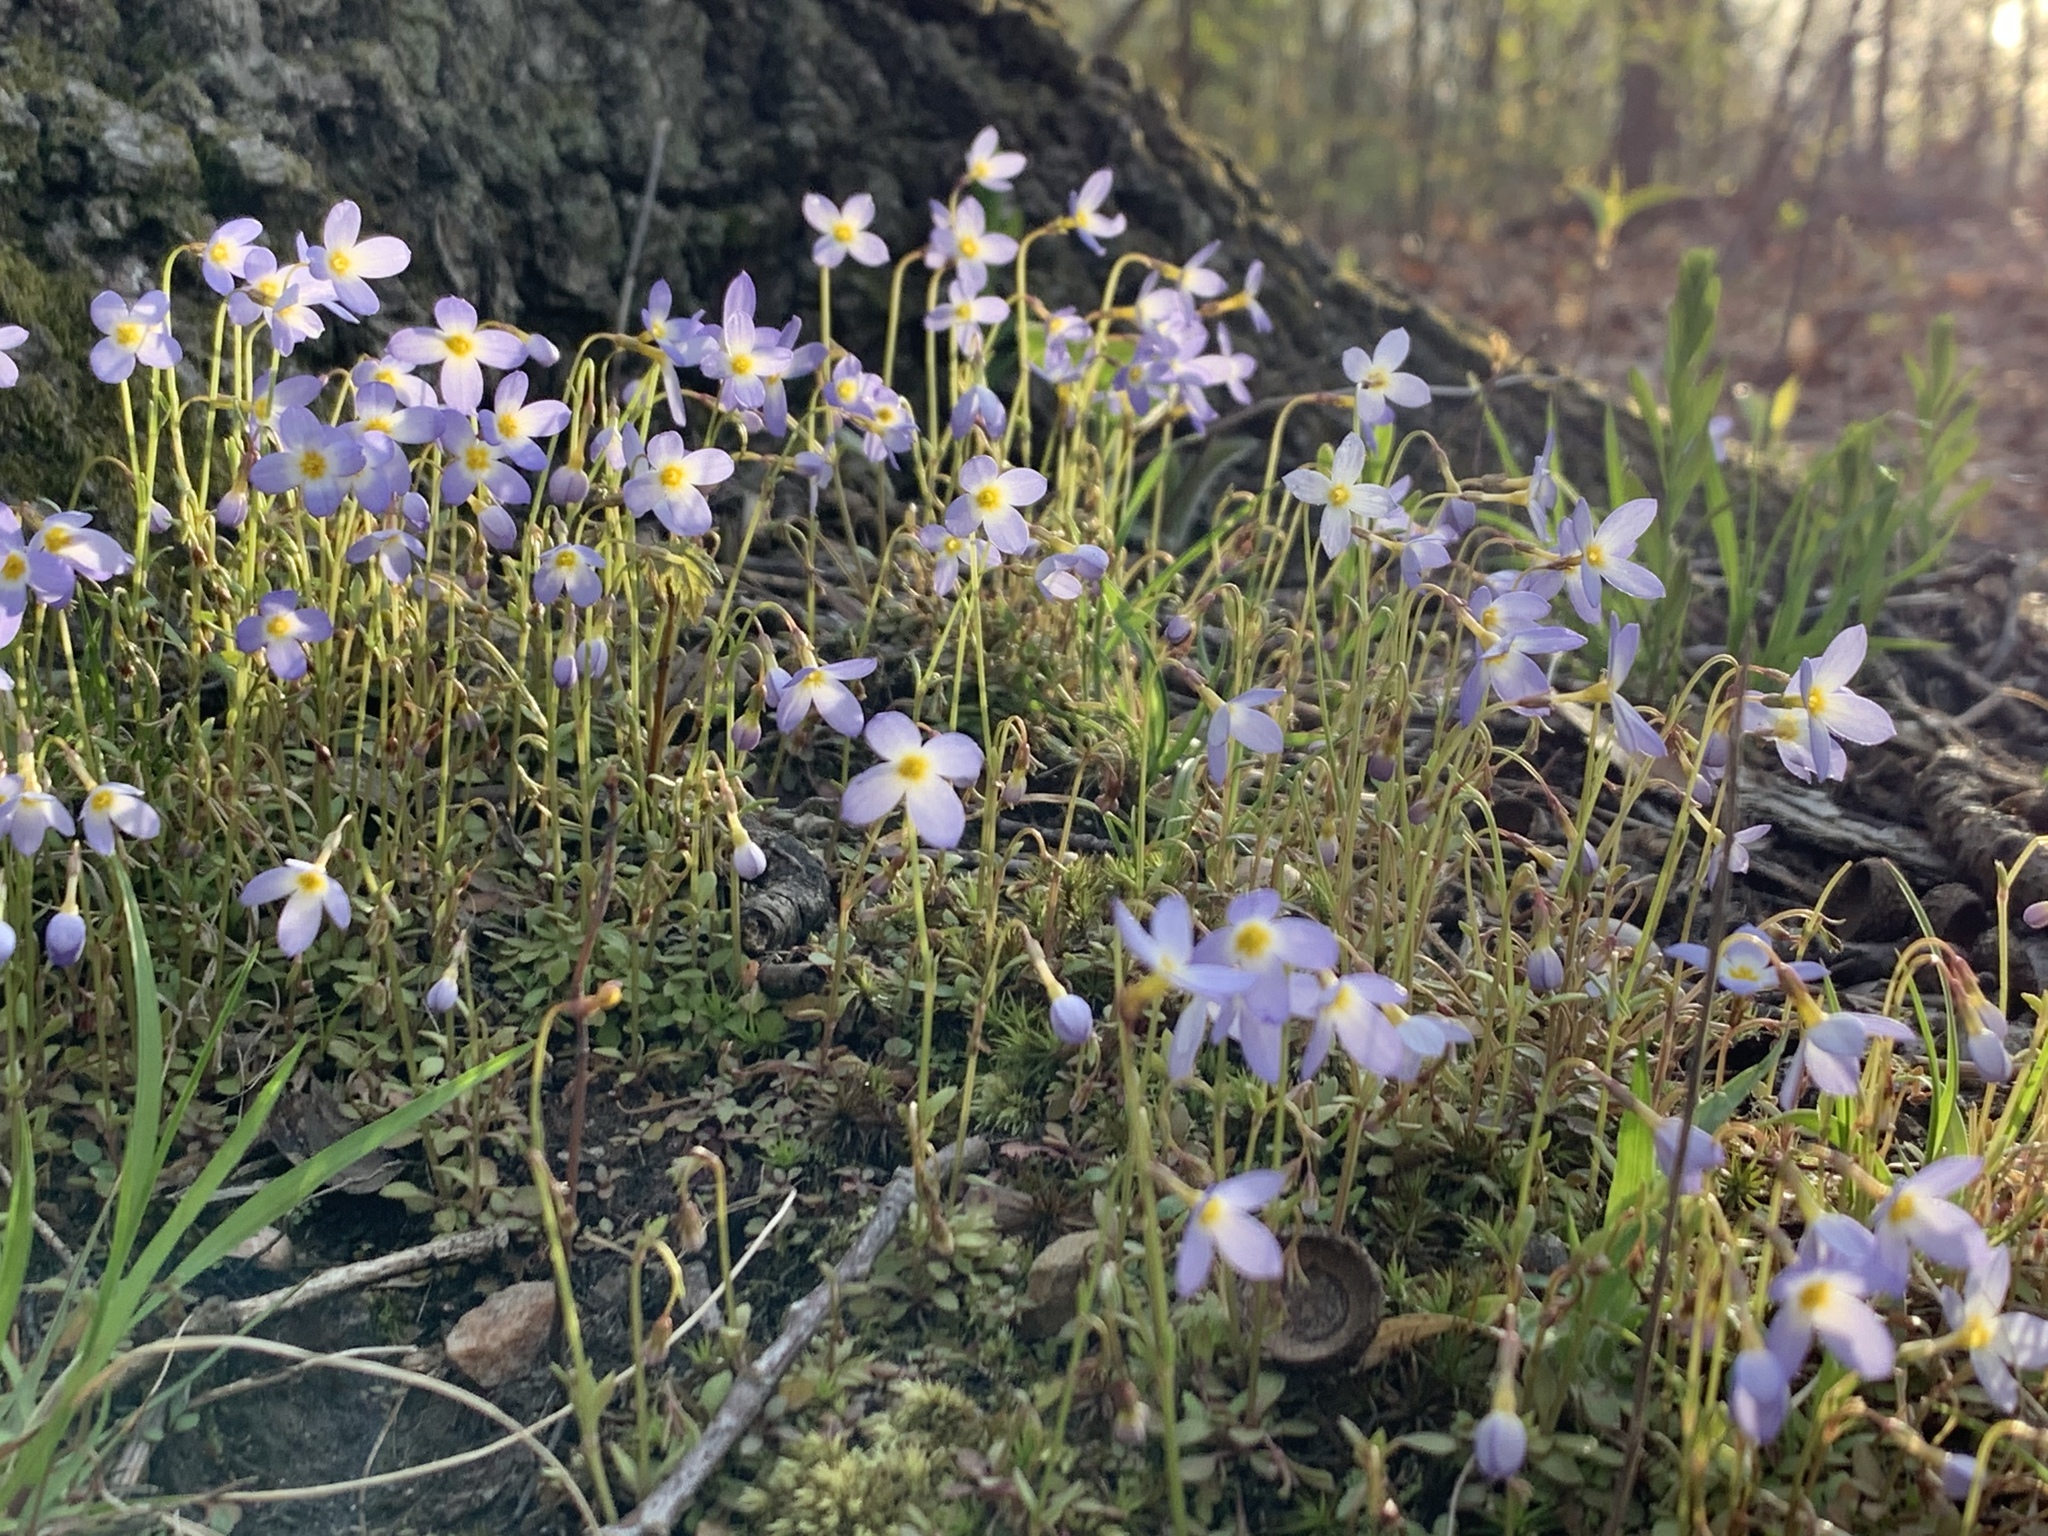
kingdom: Plantae
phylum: Tracheophyta
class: Magnoliopsida
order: Gentianales
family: Rubiaceae
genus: Houstonia
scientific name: Houstonia caerulea
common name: Bluets
